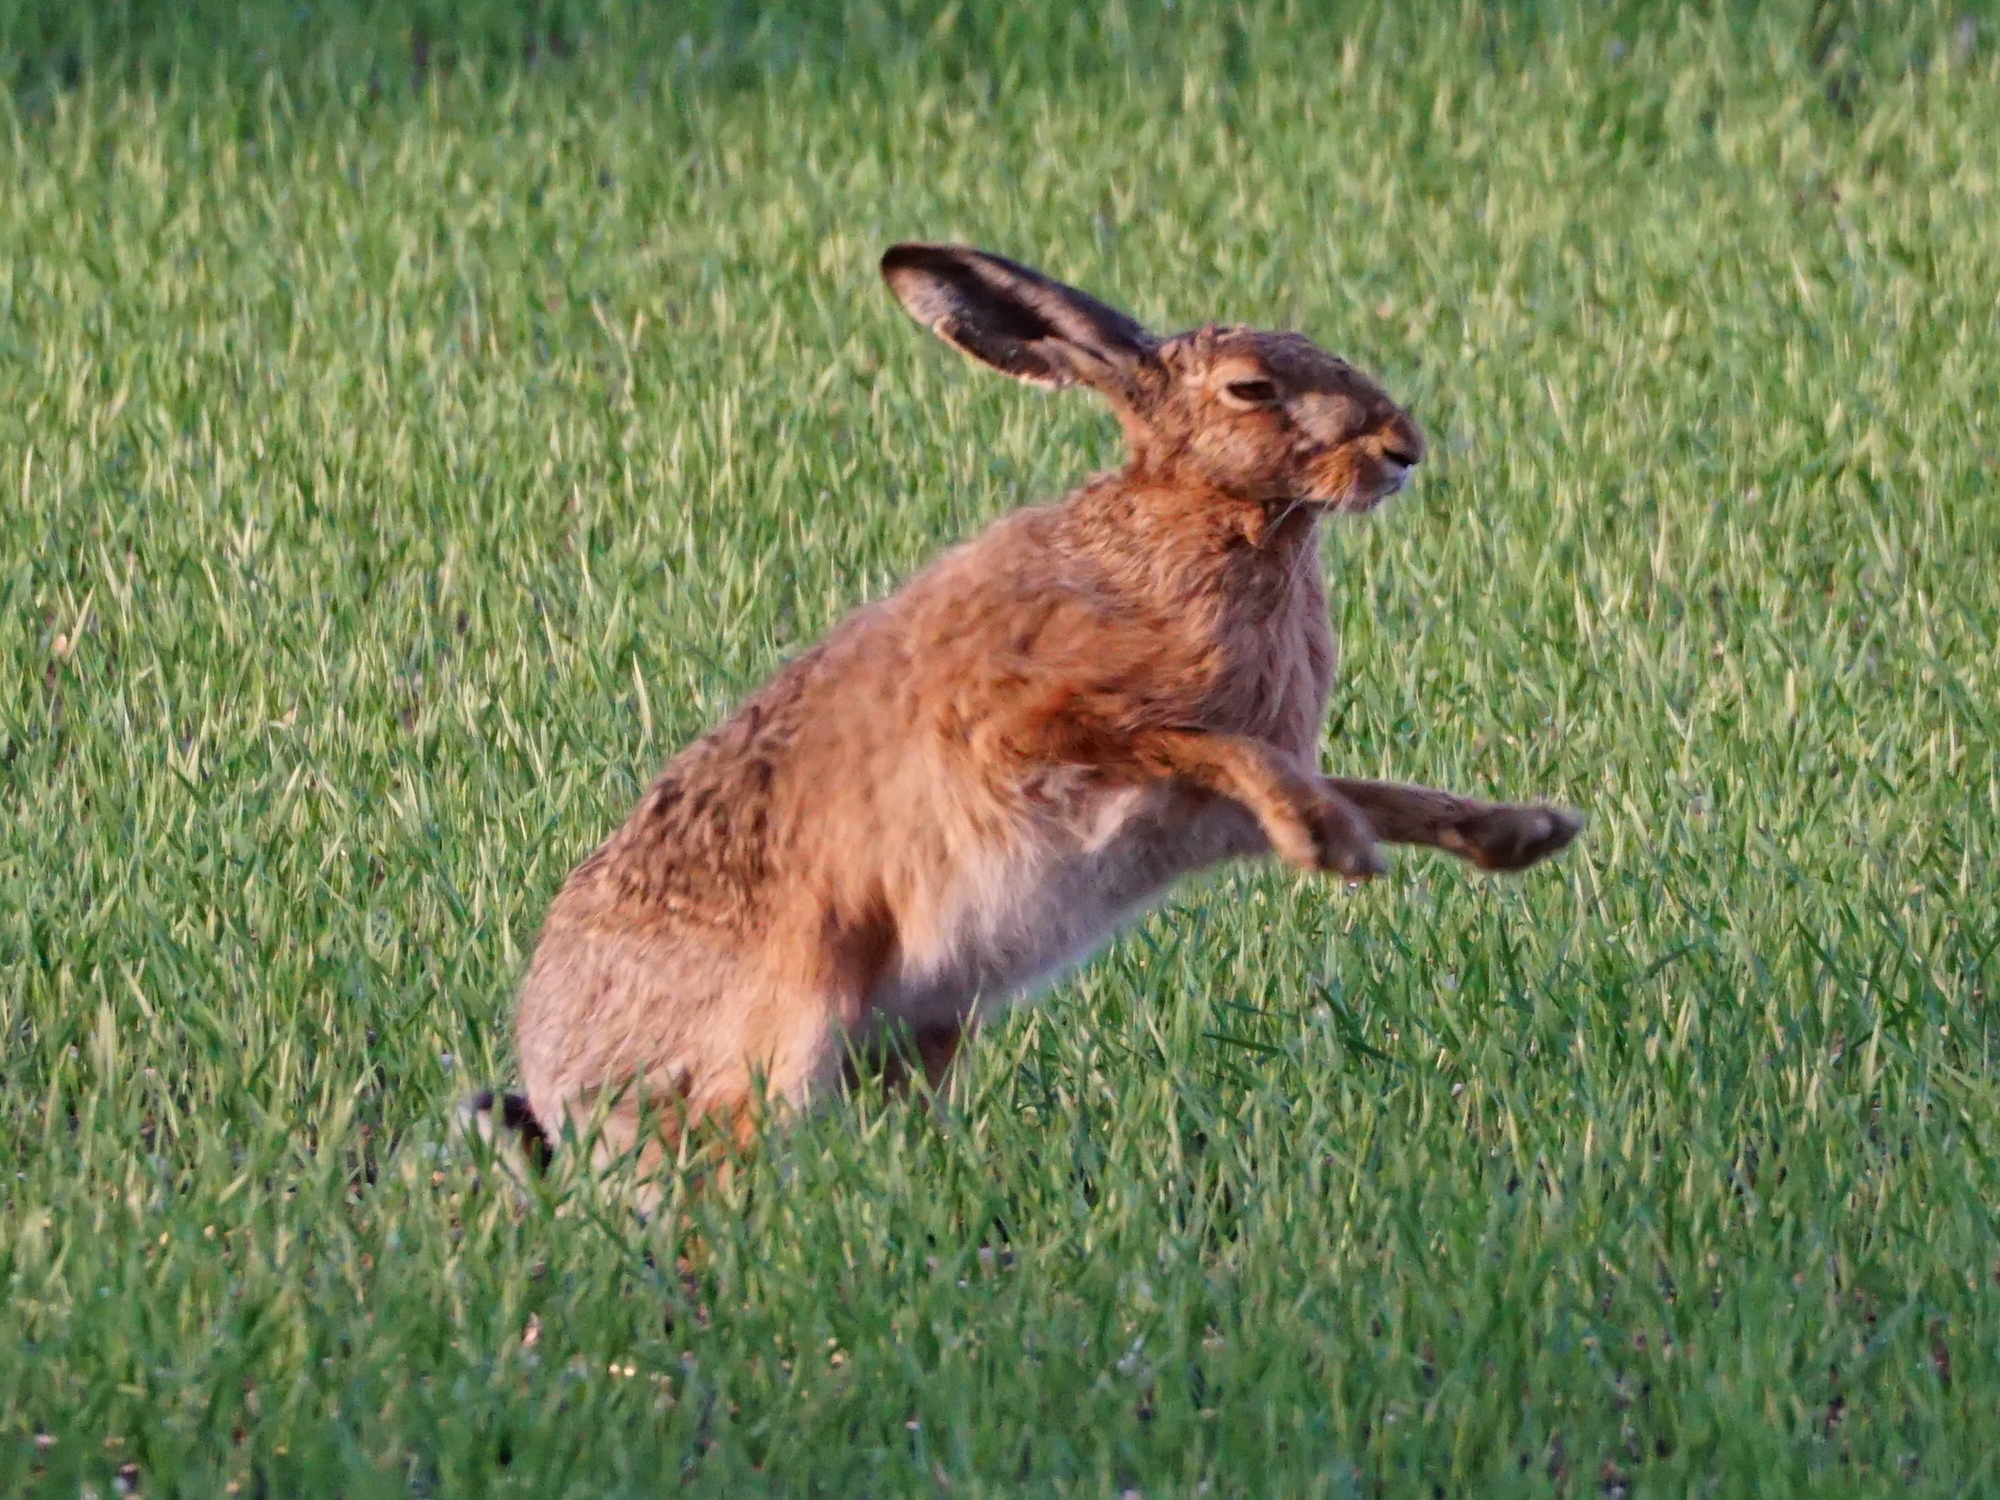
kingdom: Animalia
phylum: Chordata
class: Mammalia
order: Lagomorpha
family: Leporidae
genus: Lepus
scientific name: Lepus europaeus
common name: European hare
